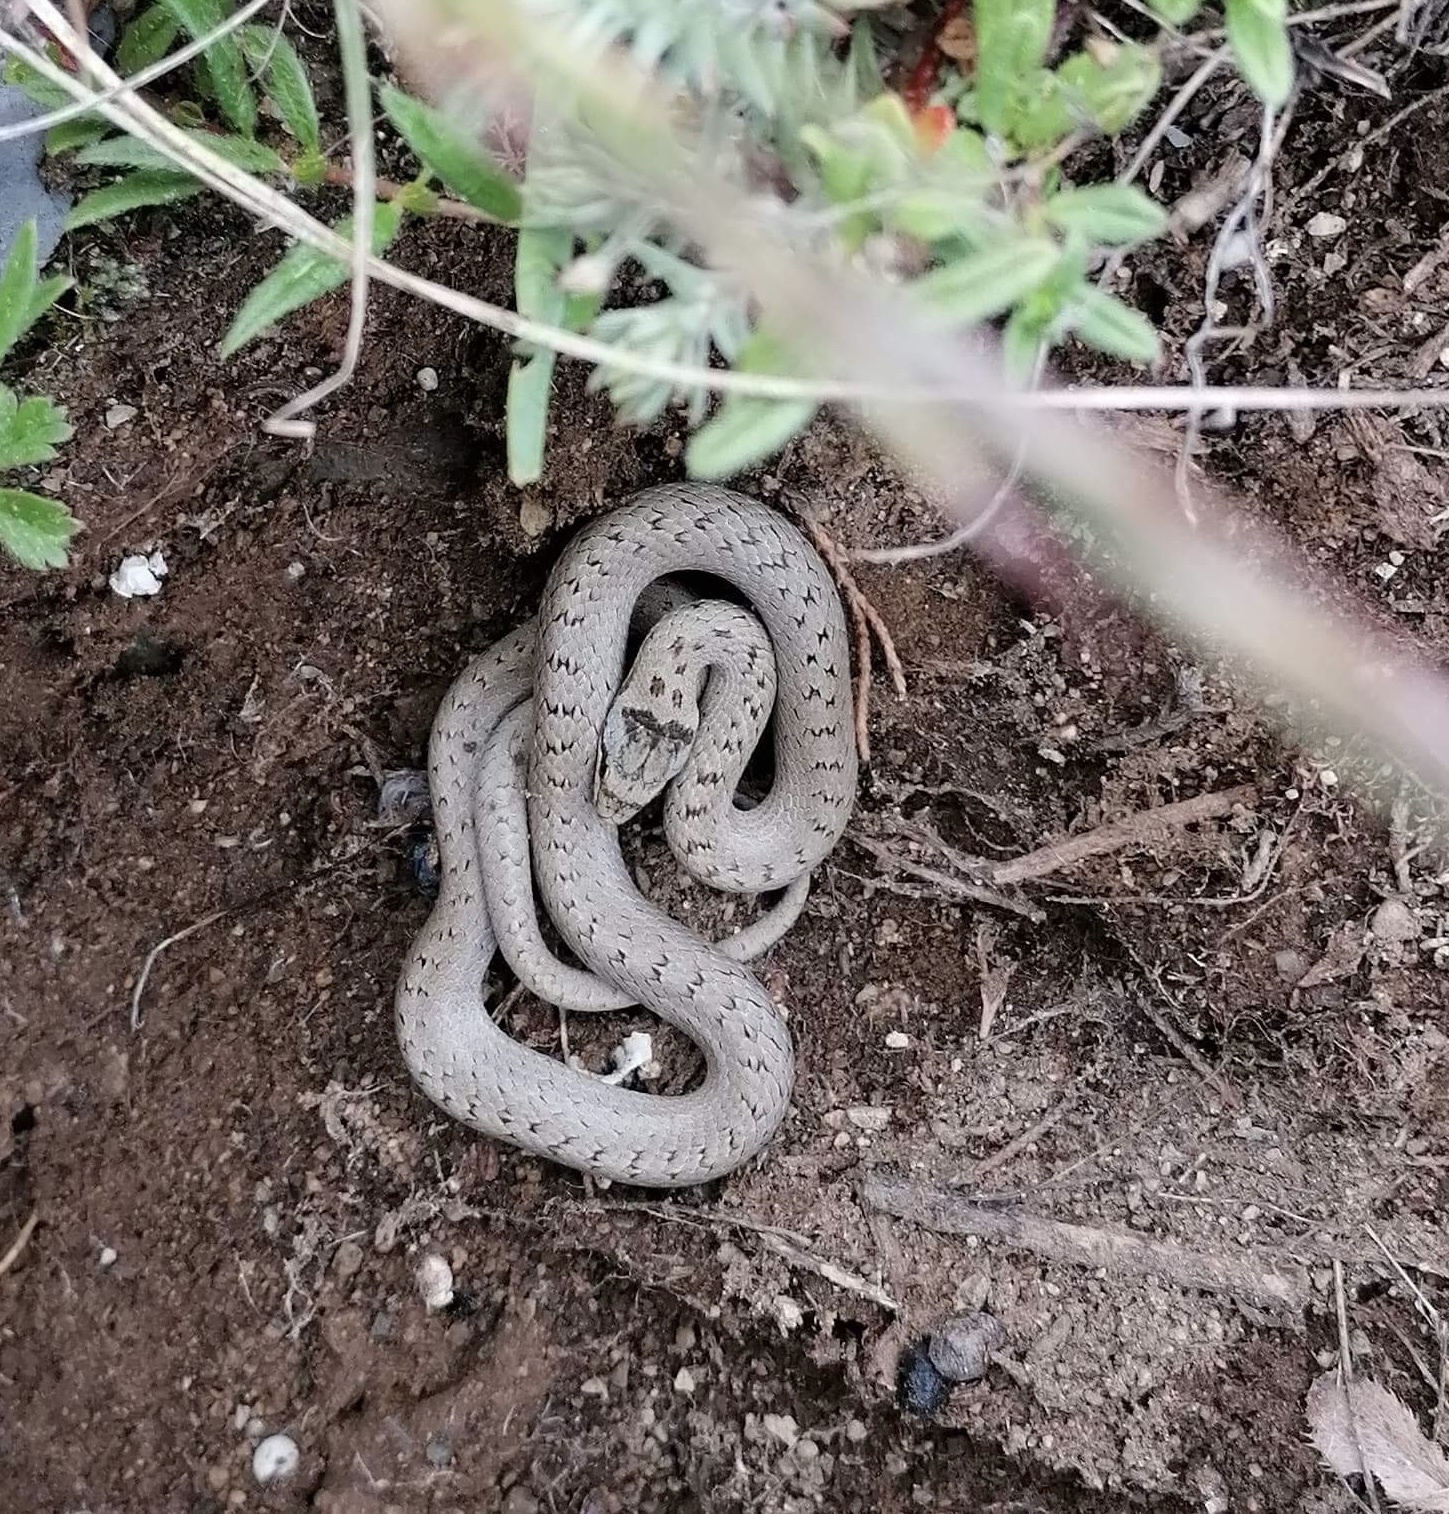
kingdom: Animalia
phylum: Chordata
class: Squamata
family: Colubridae
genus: Coronella
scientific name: Coronella austriaca
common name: Smooth snake
